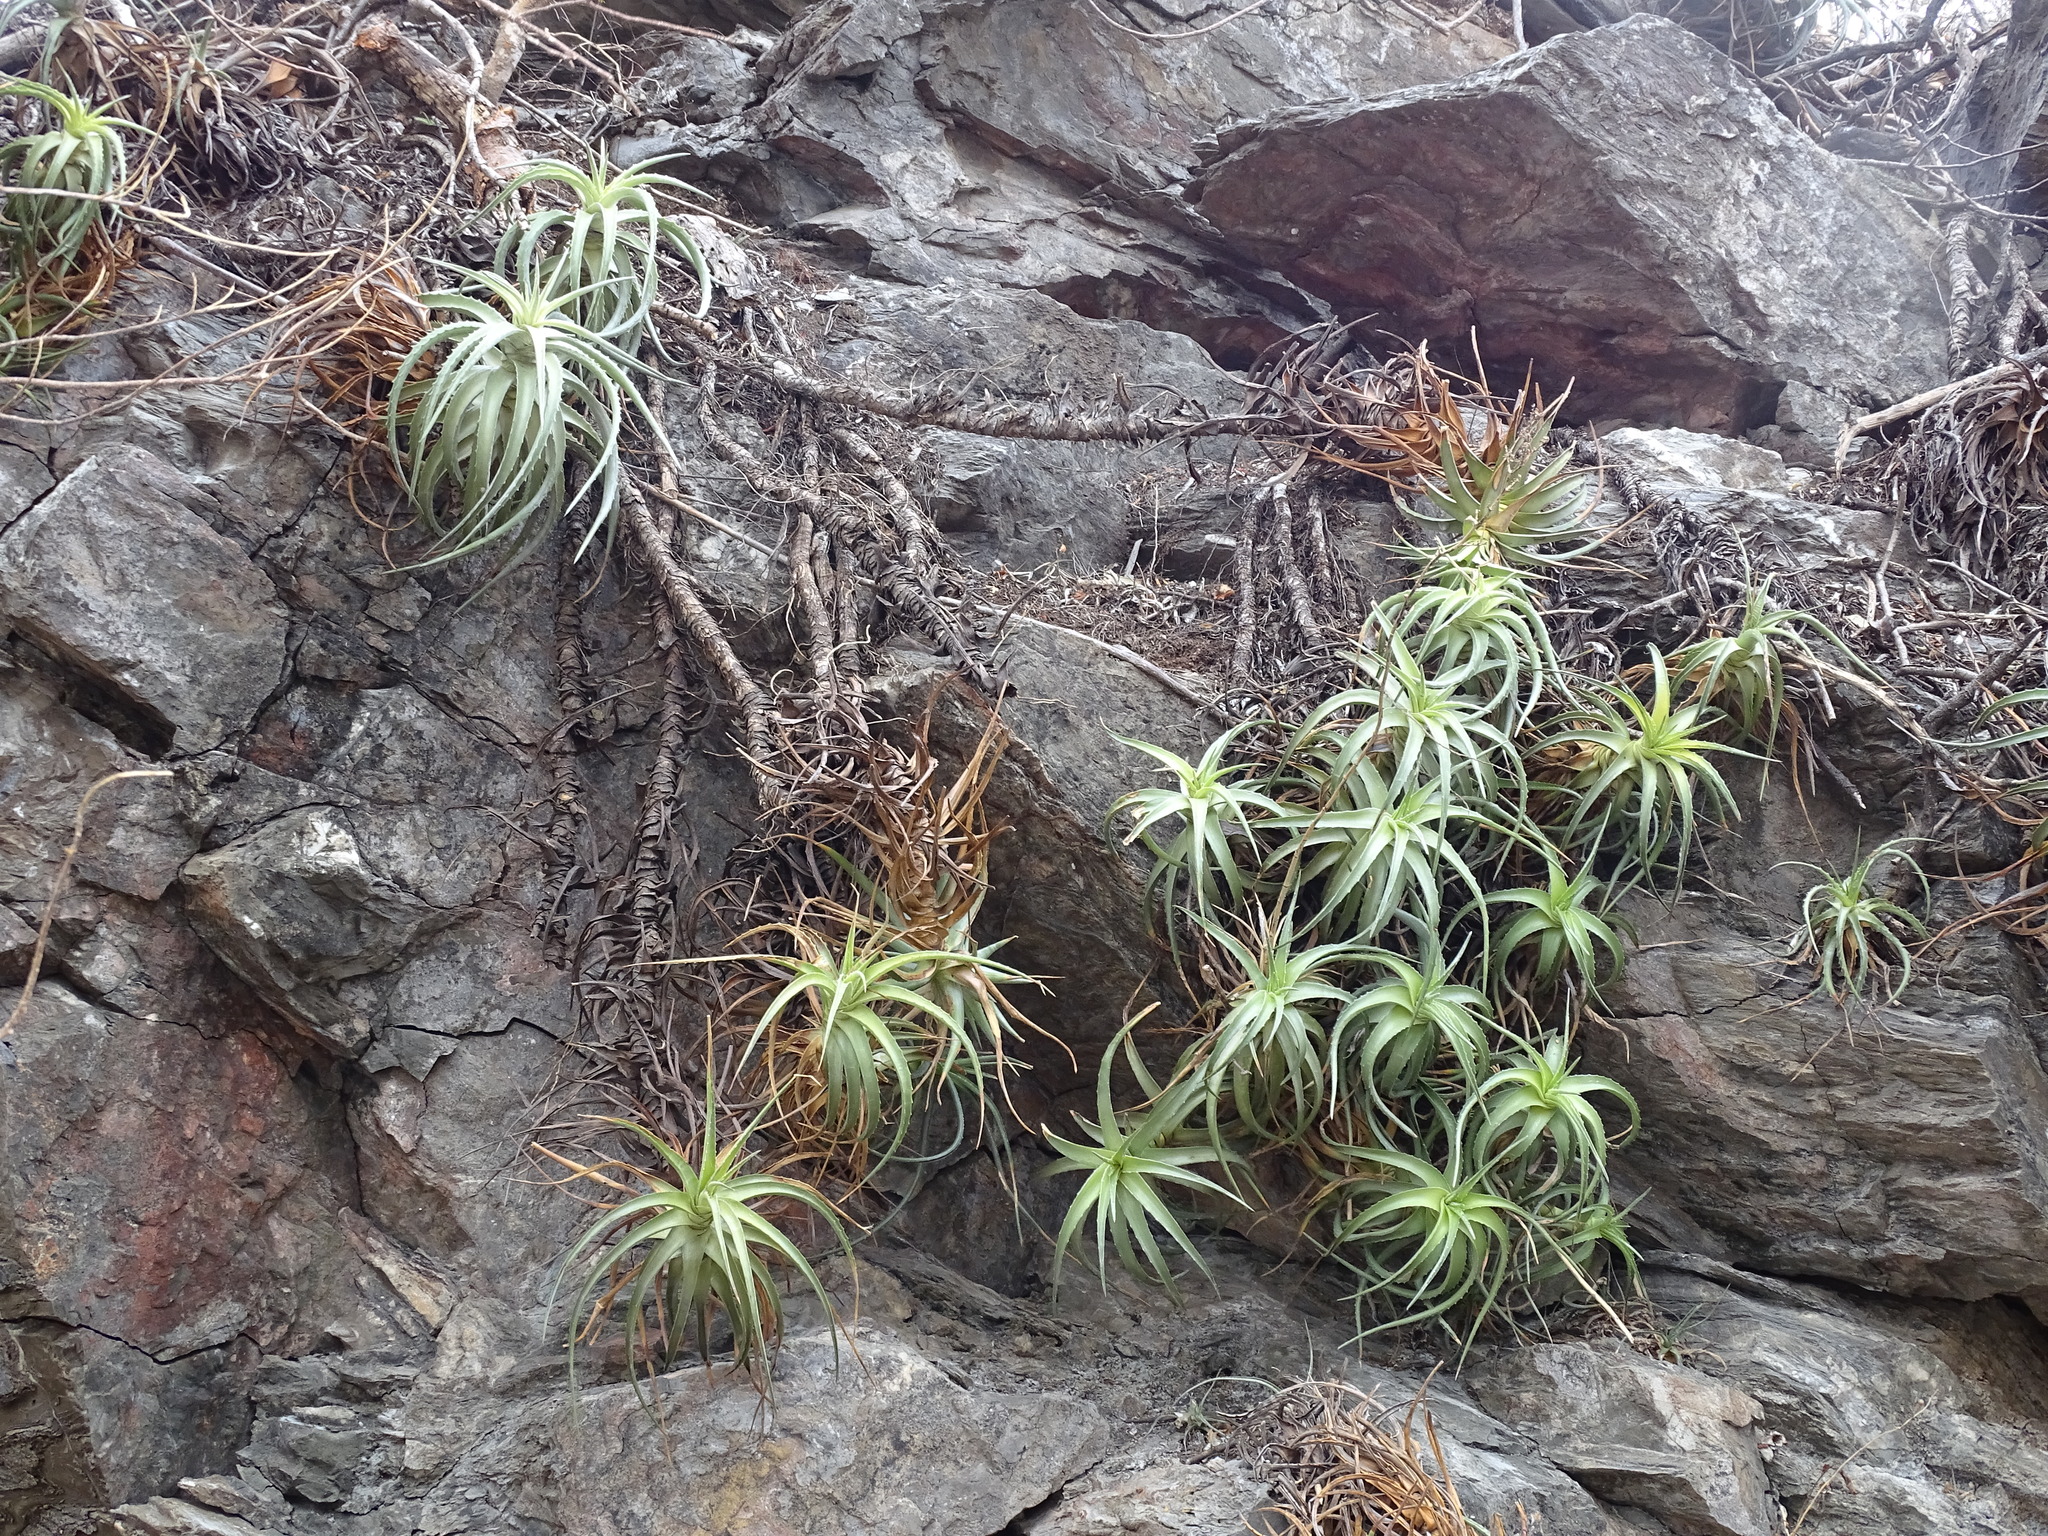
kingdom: Plantae
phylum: Tracheophyta
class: Liliopsida
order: Poales
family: Bromeliaceae
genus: Hechtia
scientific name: Hechtia isthmusiana
